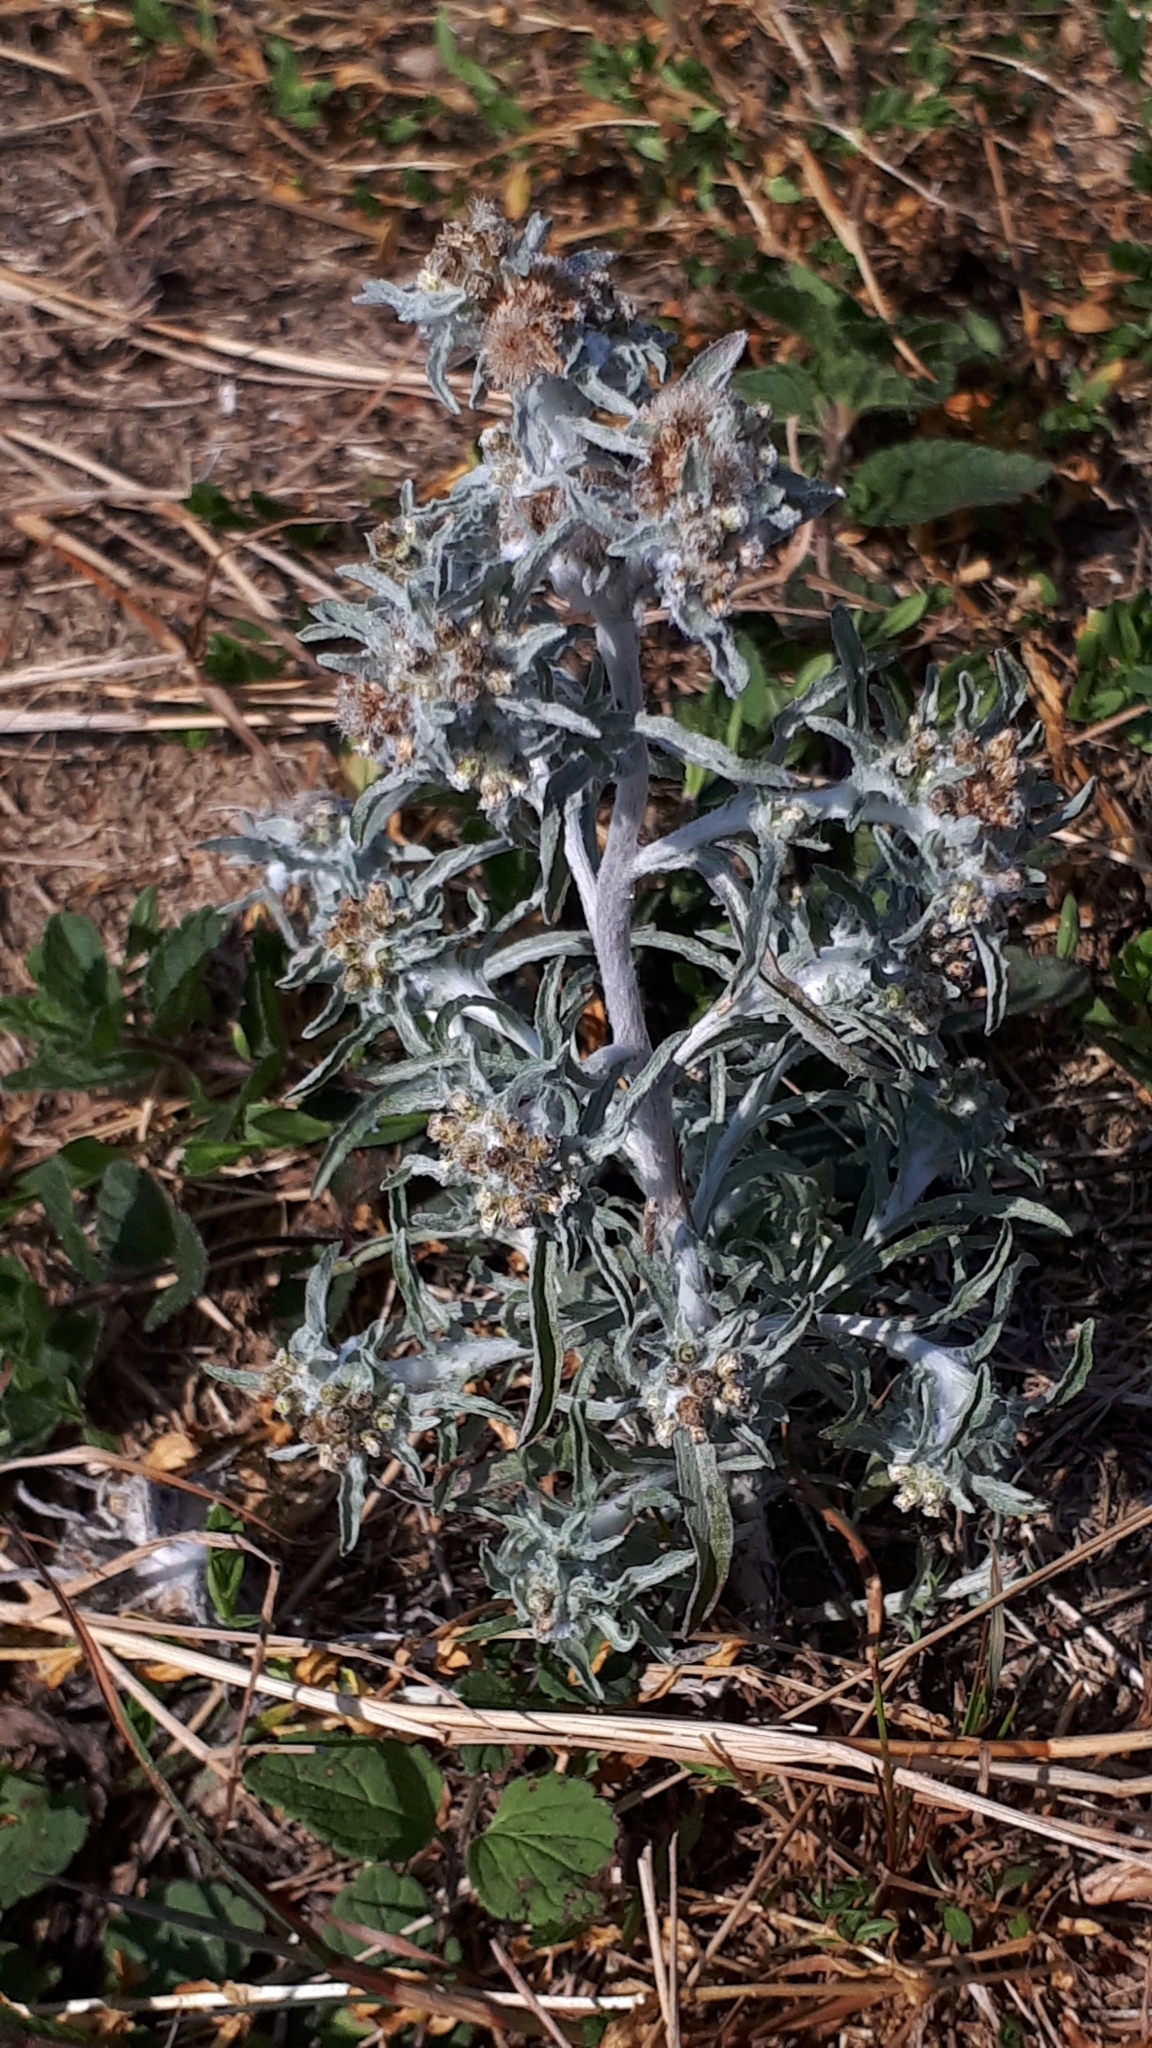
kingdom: Plantae
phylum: Tracheophyta
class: Magnoliopsida
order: Asterales
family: Asteraceae
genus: Gnaphalium
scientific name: Gnaphalium uliginosum
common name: Marsh cudweed
